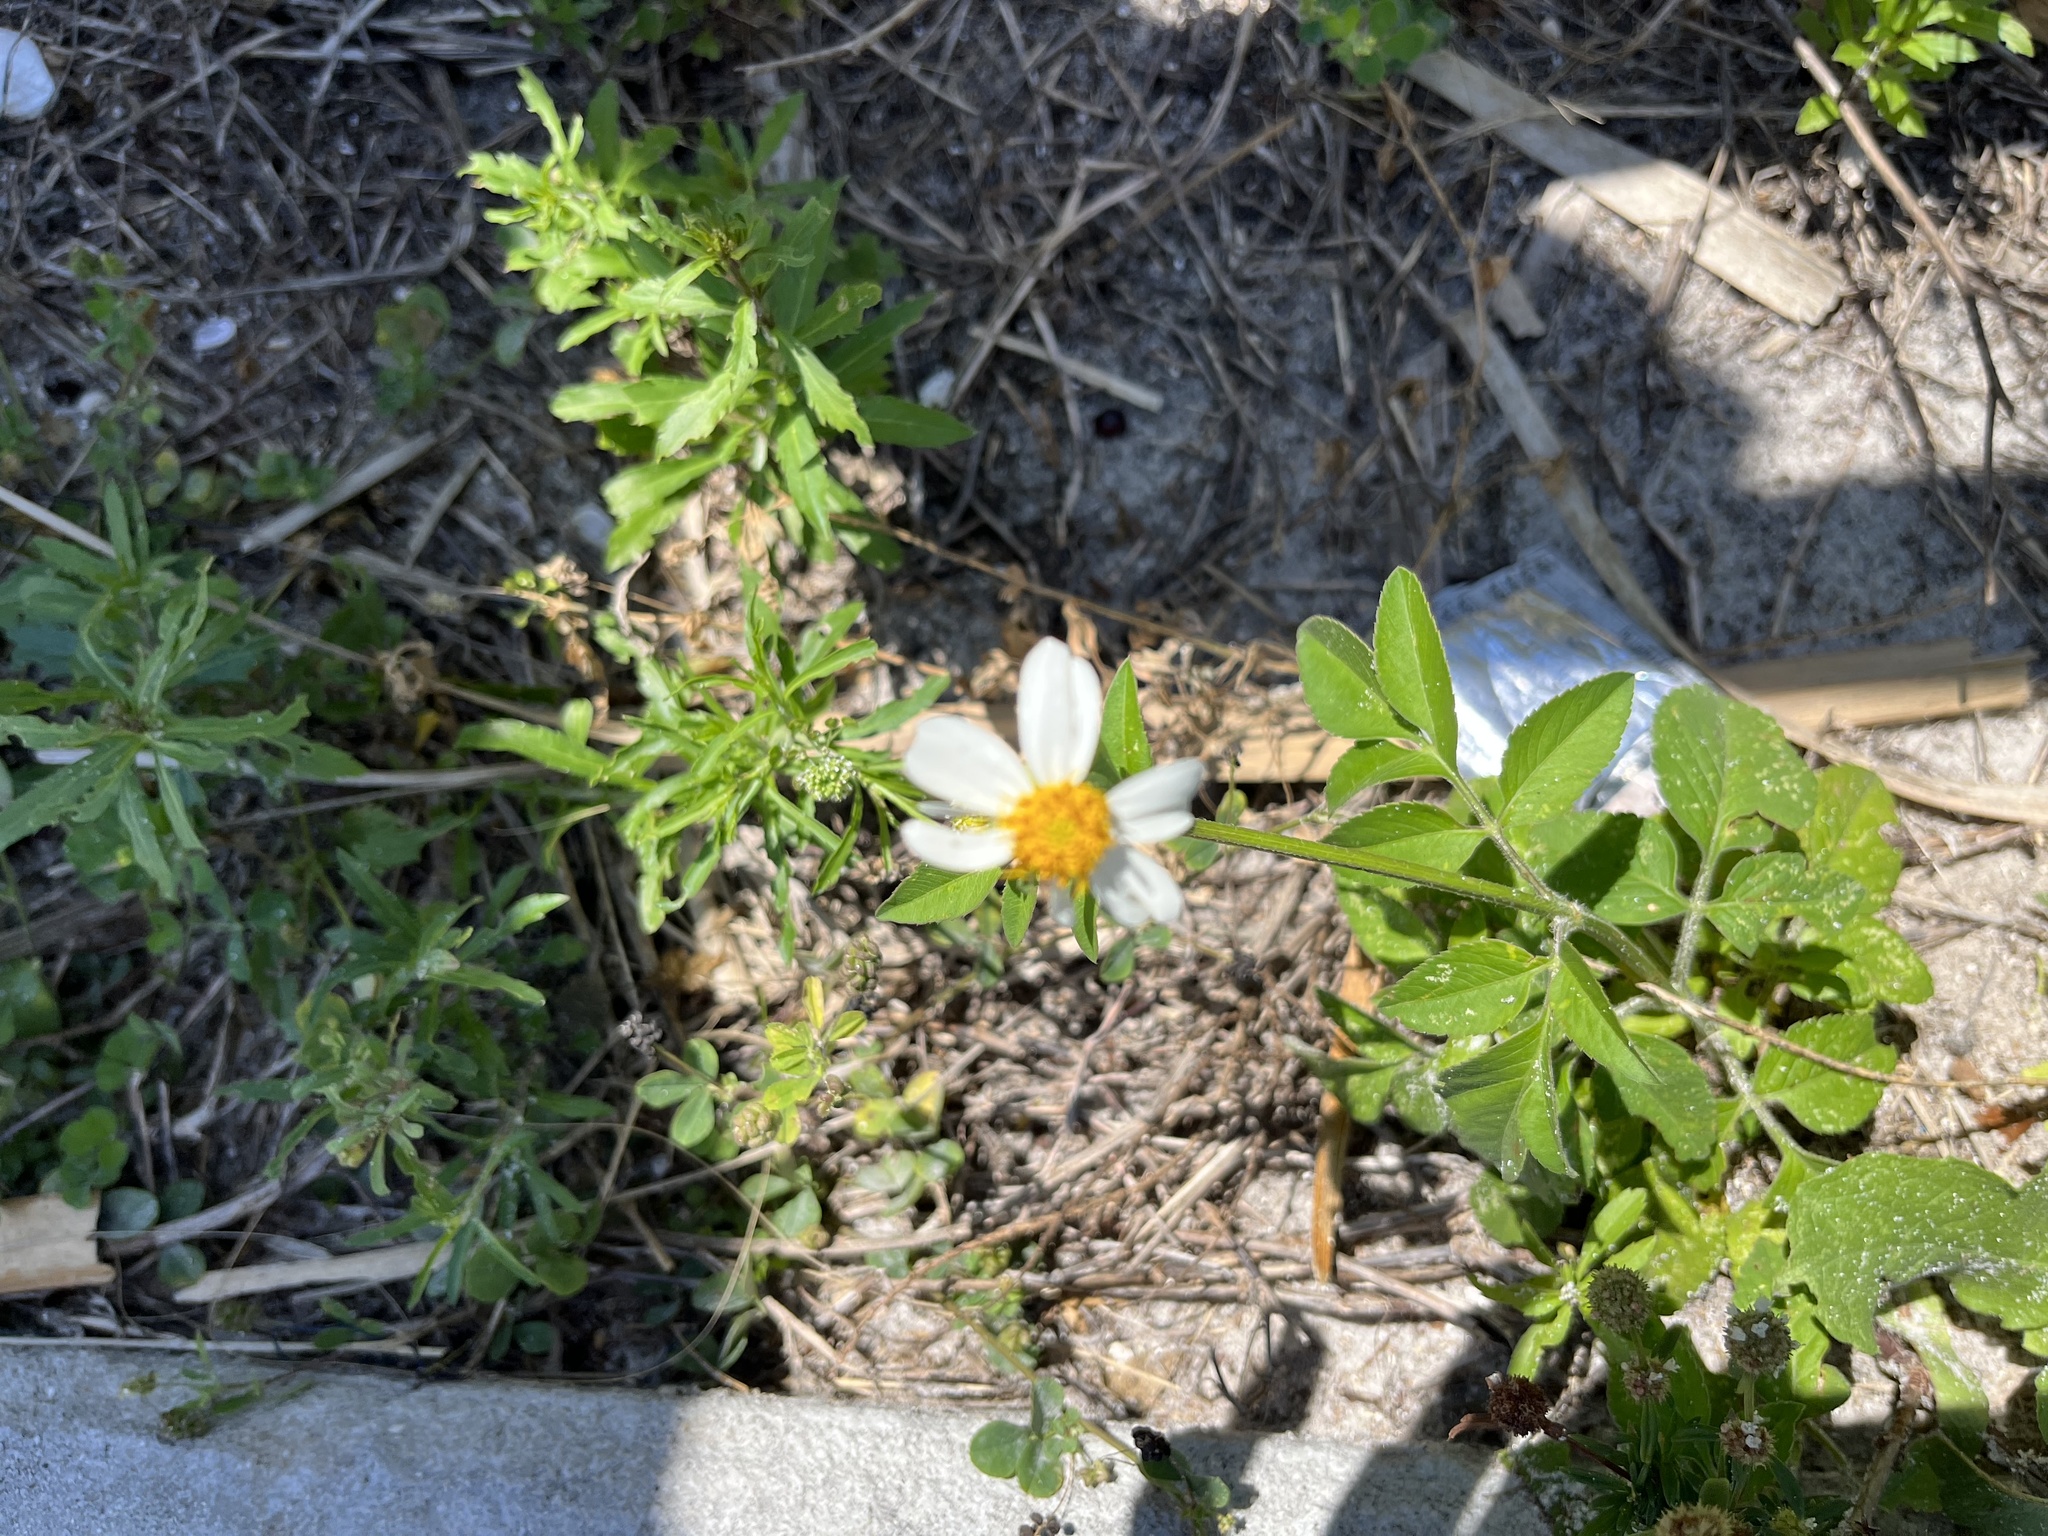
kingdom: Plantae
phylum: Tracheophyta
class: Magnoliopsida
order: Asterales
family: Asteraceae
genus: Bidens
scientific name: Bidens alba
